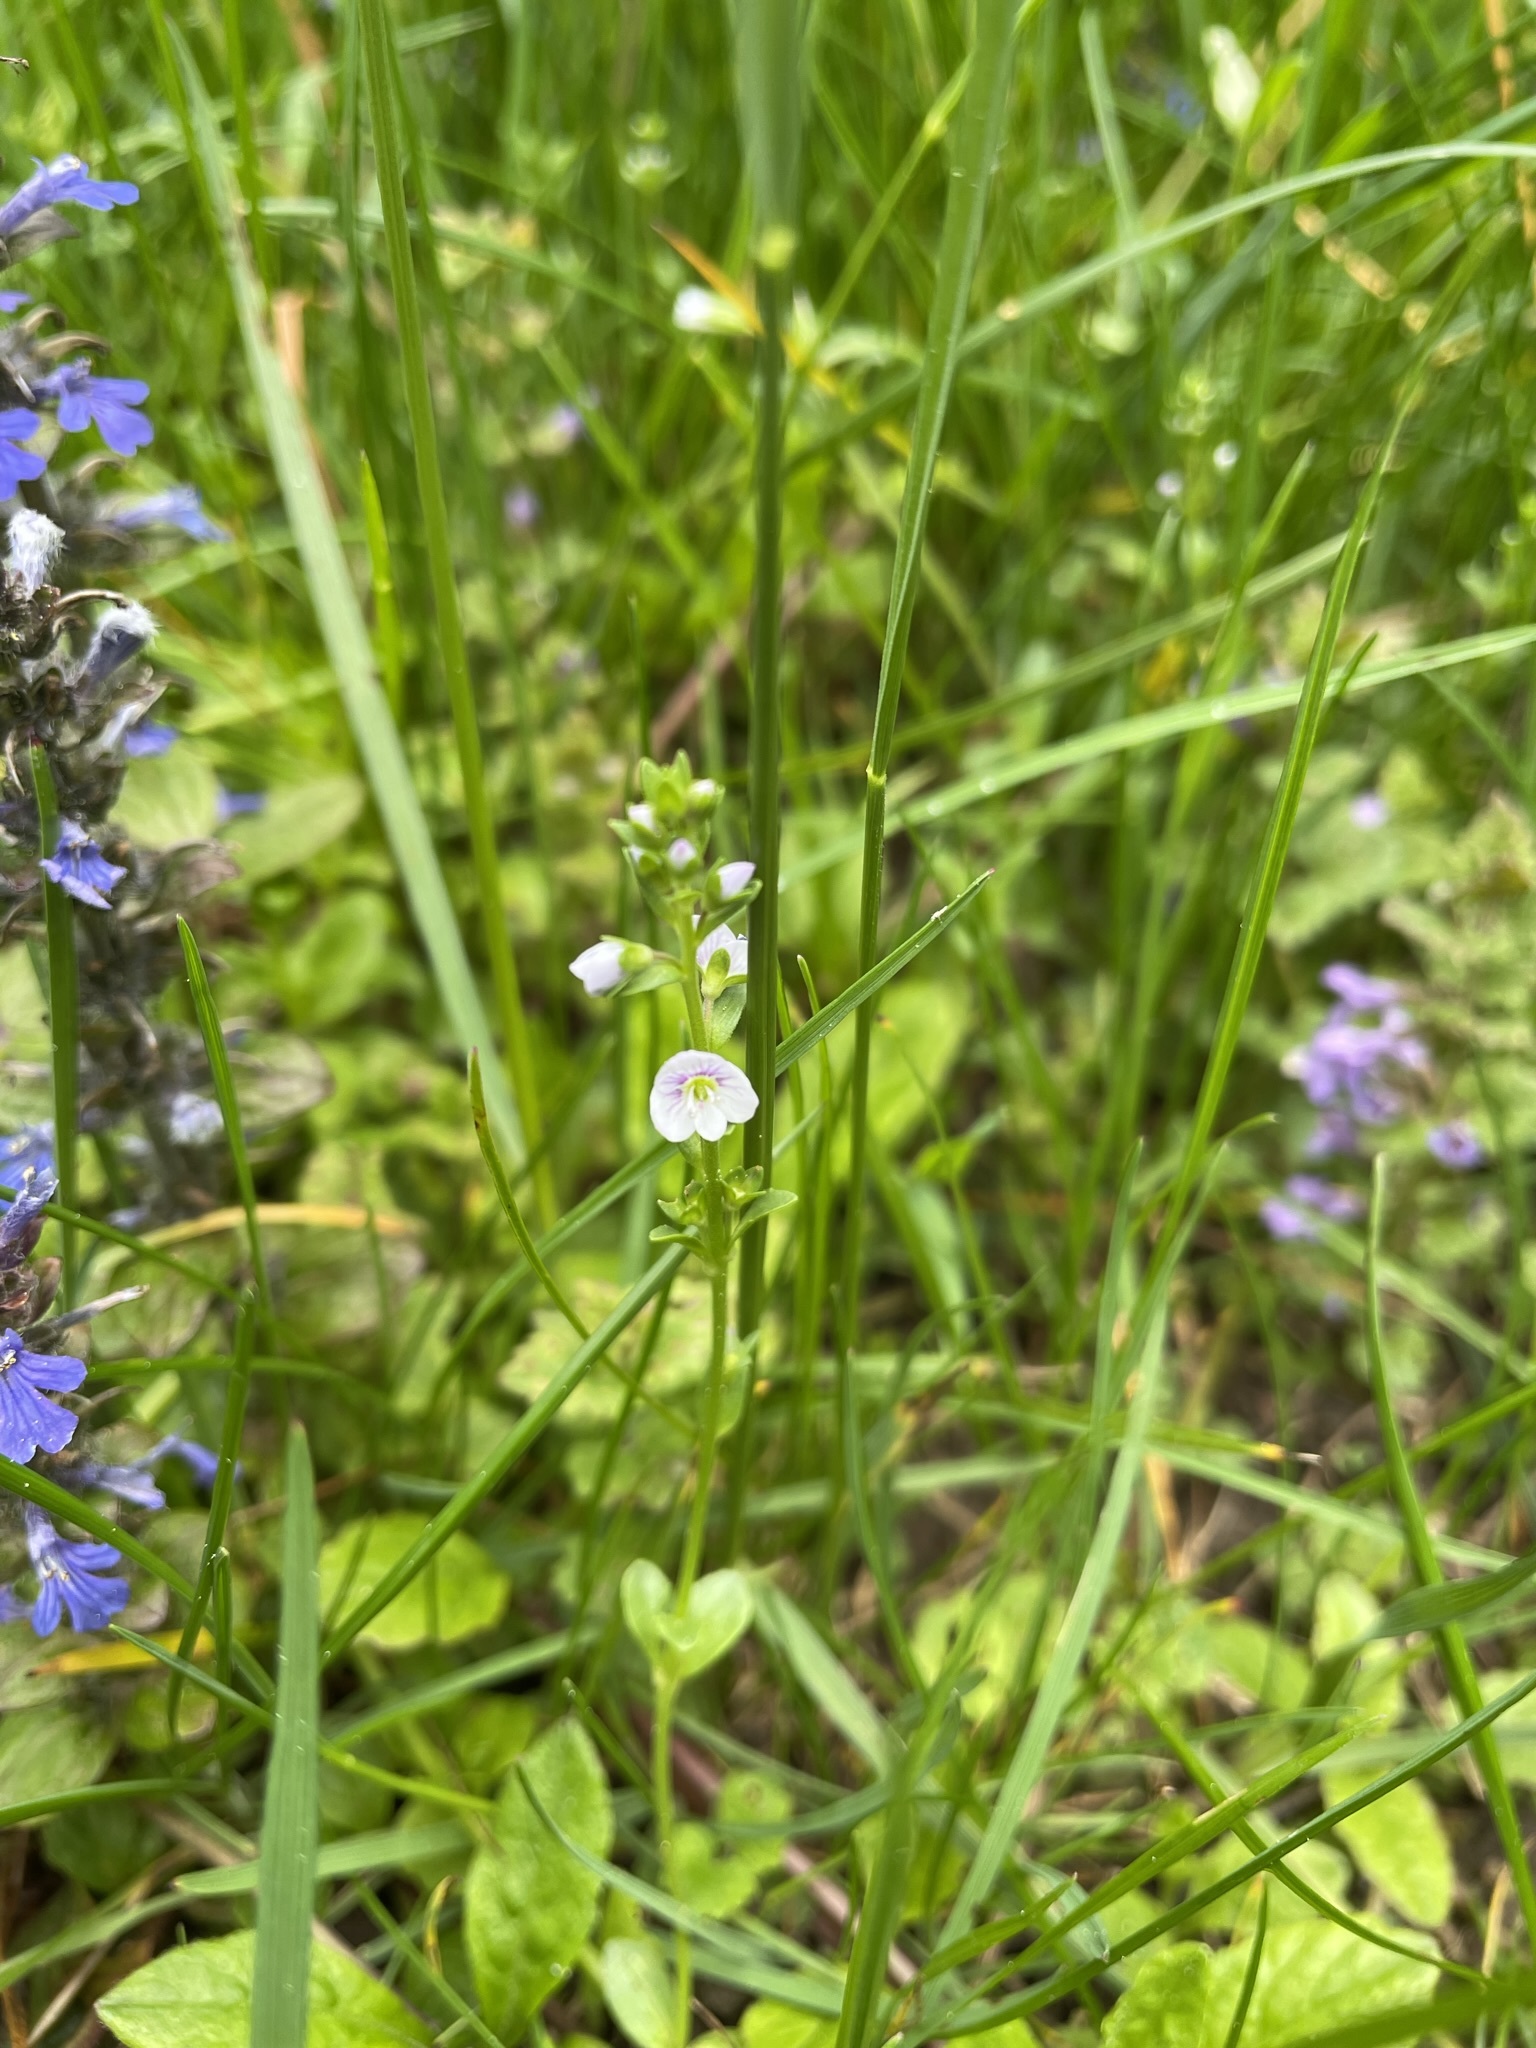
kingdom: Plantae
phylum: Tracheophyta
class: Magnoliopsida
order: Lamiales
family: Plantaginaceae
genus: Veronica
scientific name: Veronica serpyllifolia
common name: Thyme-leaved speedwell
